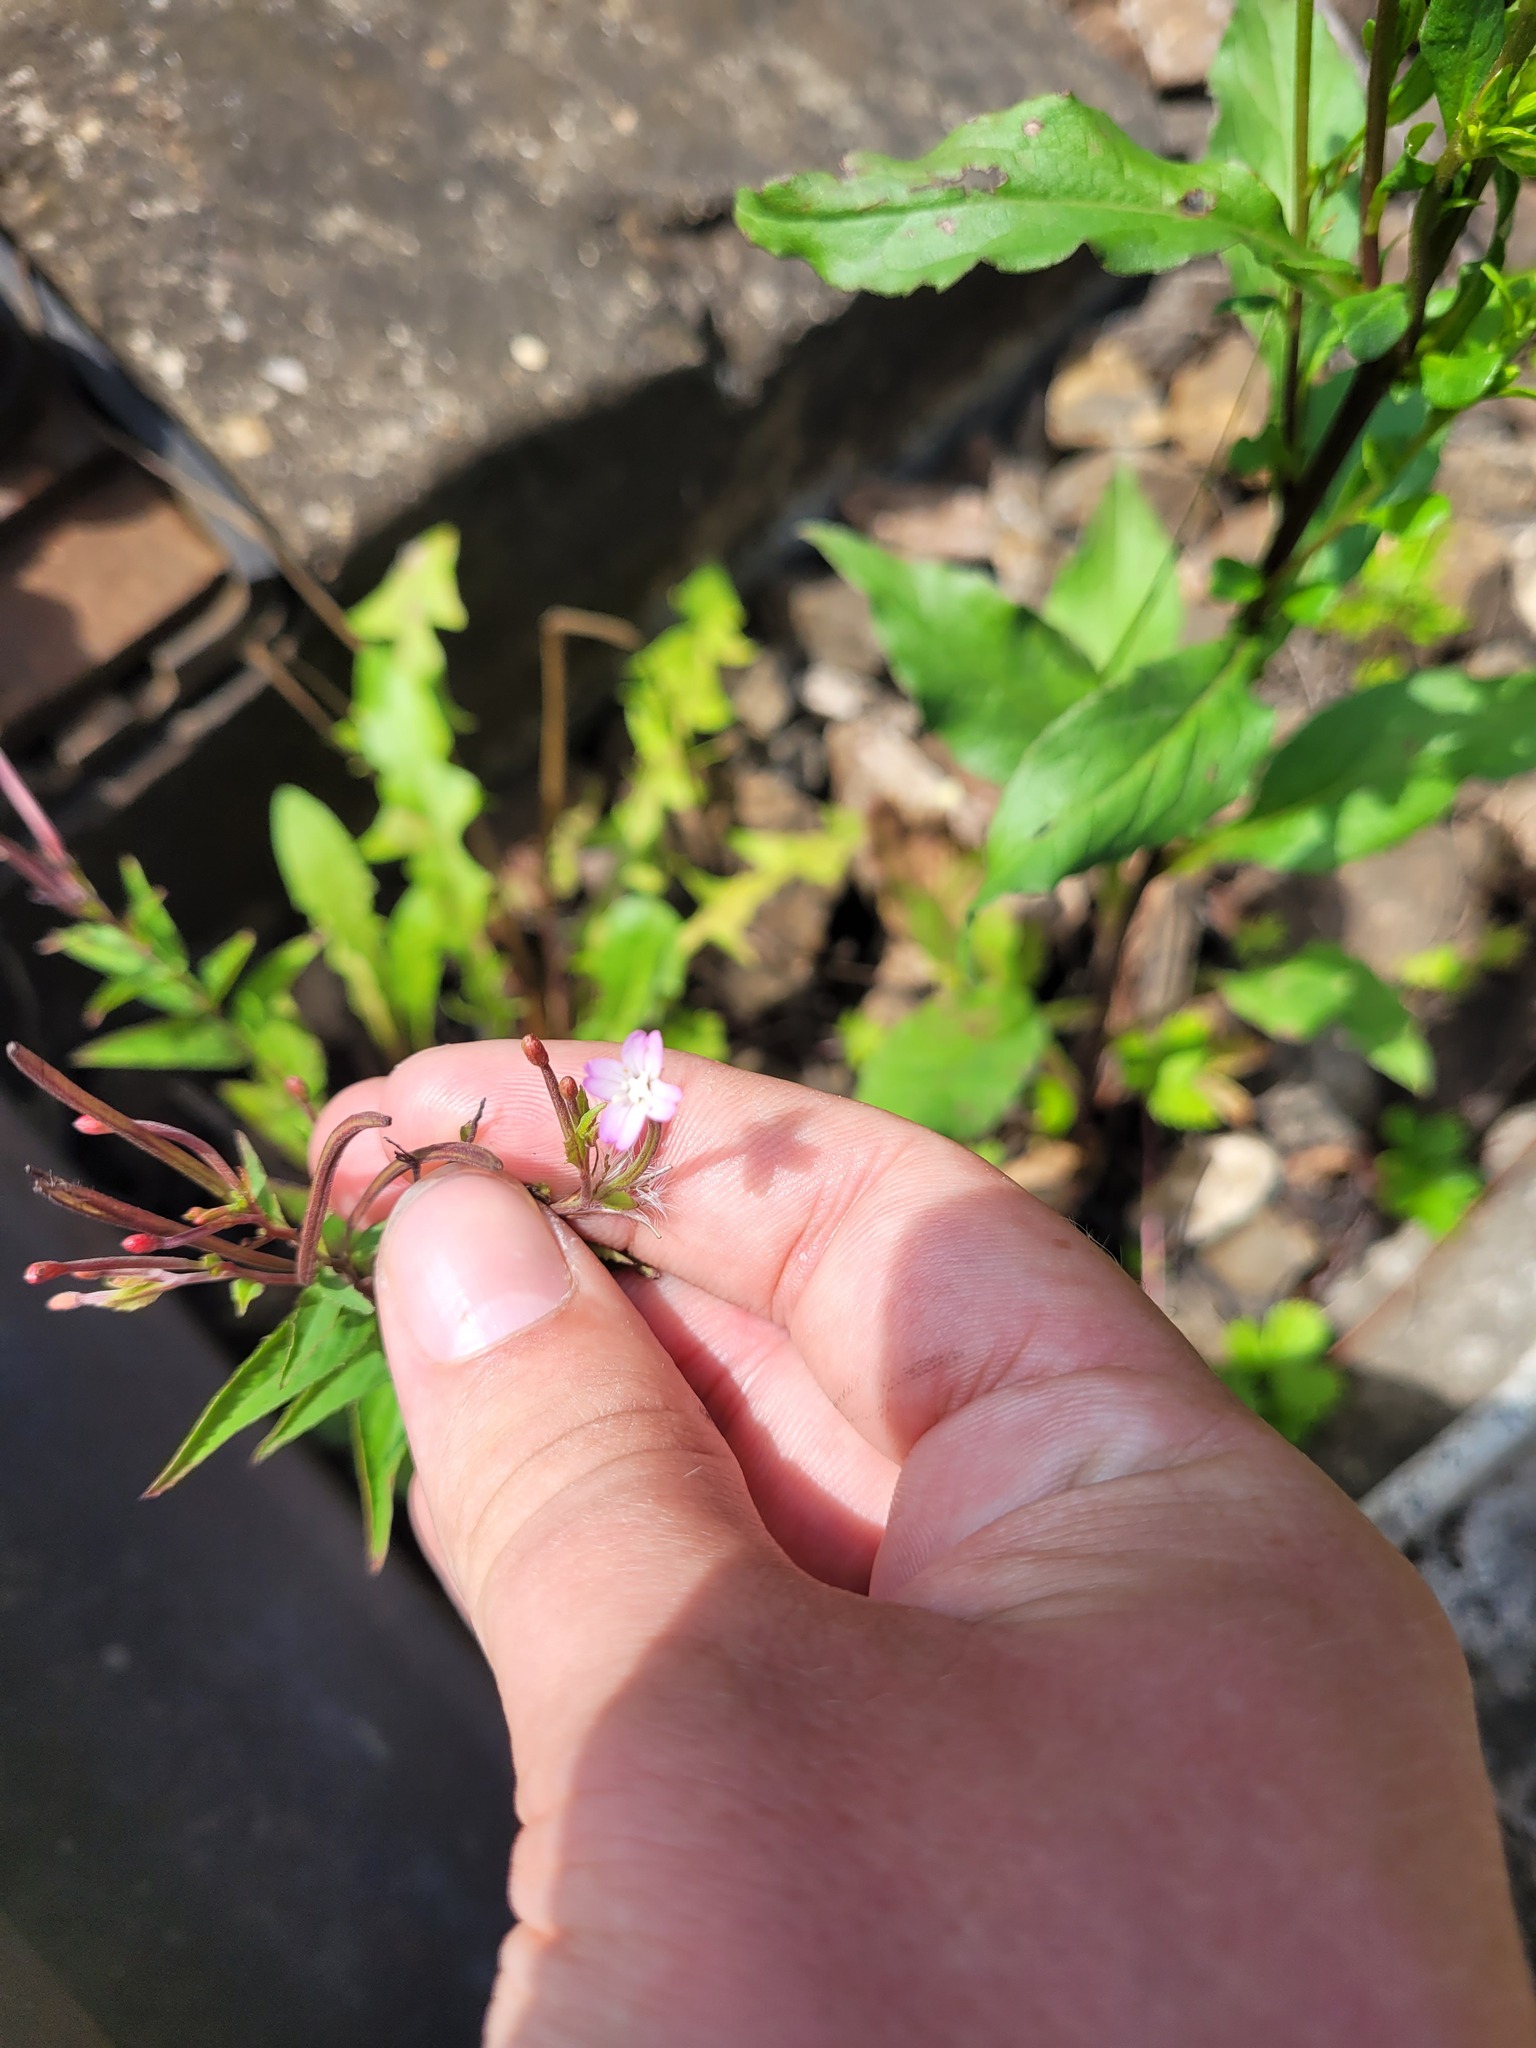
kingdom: Plantae
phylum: Tracheophyta
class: Magnoliopsida
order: Myrtales
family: Onagraceae
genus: Epilobium
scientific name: Epilobium montanum
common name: Broad-leaved willowherb
